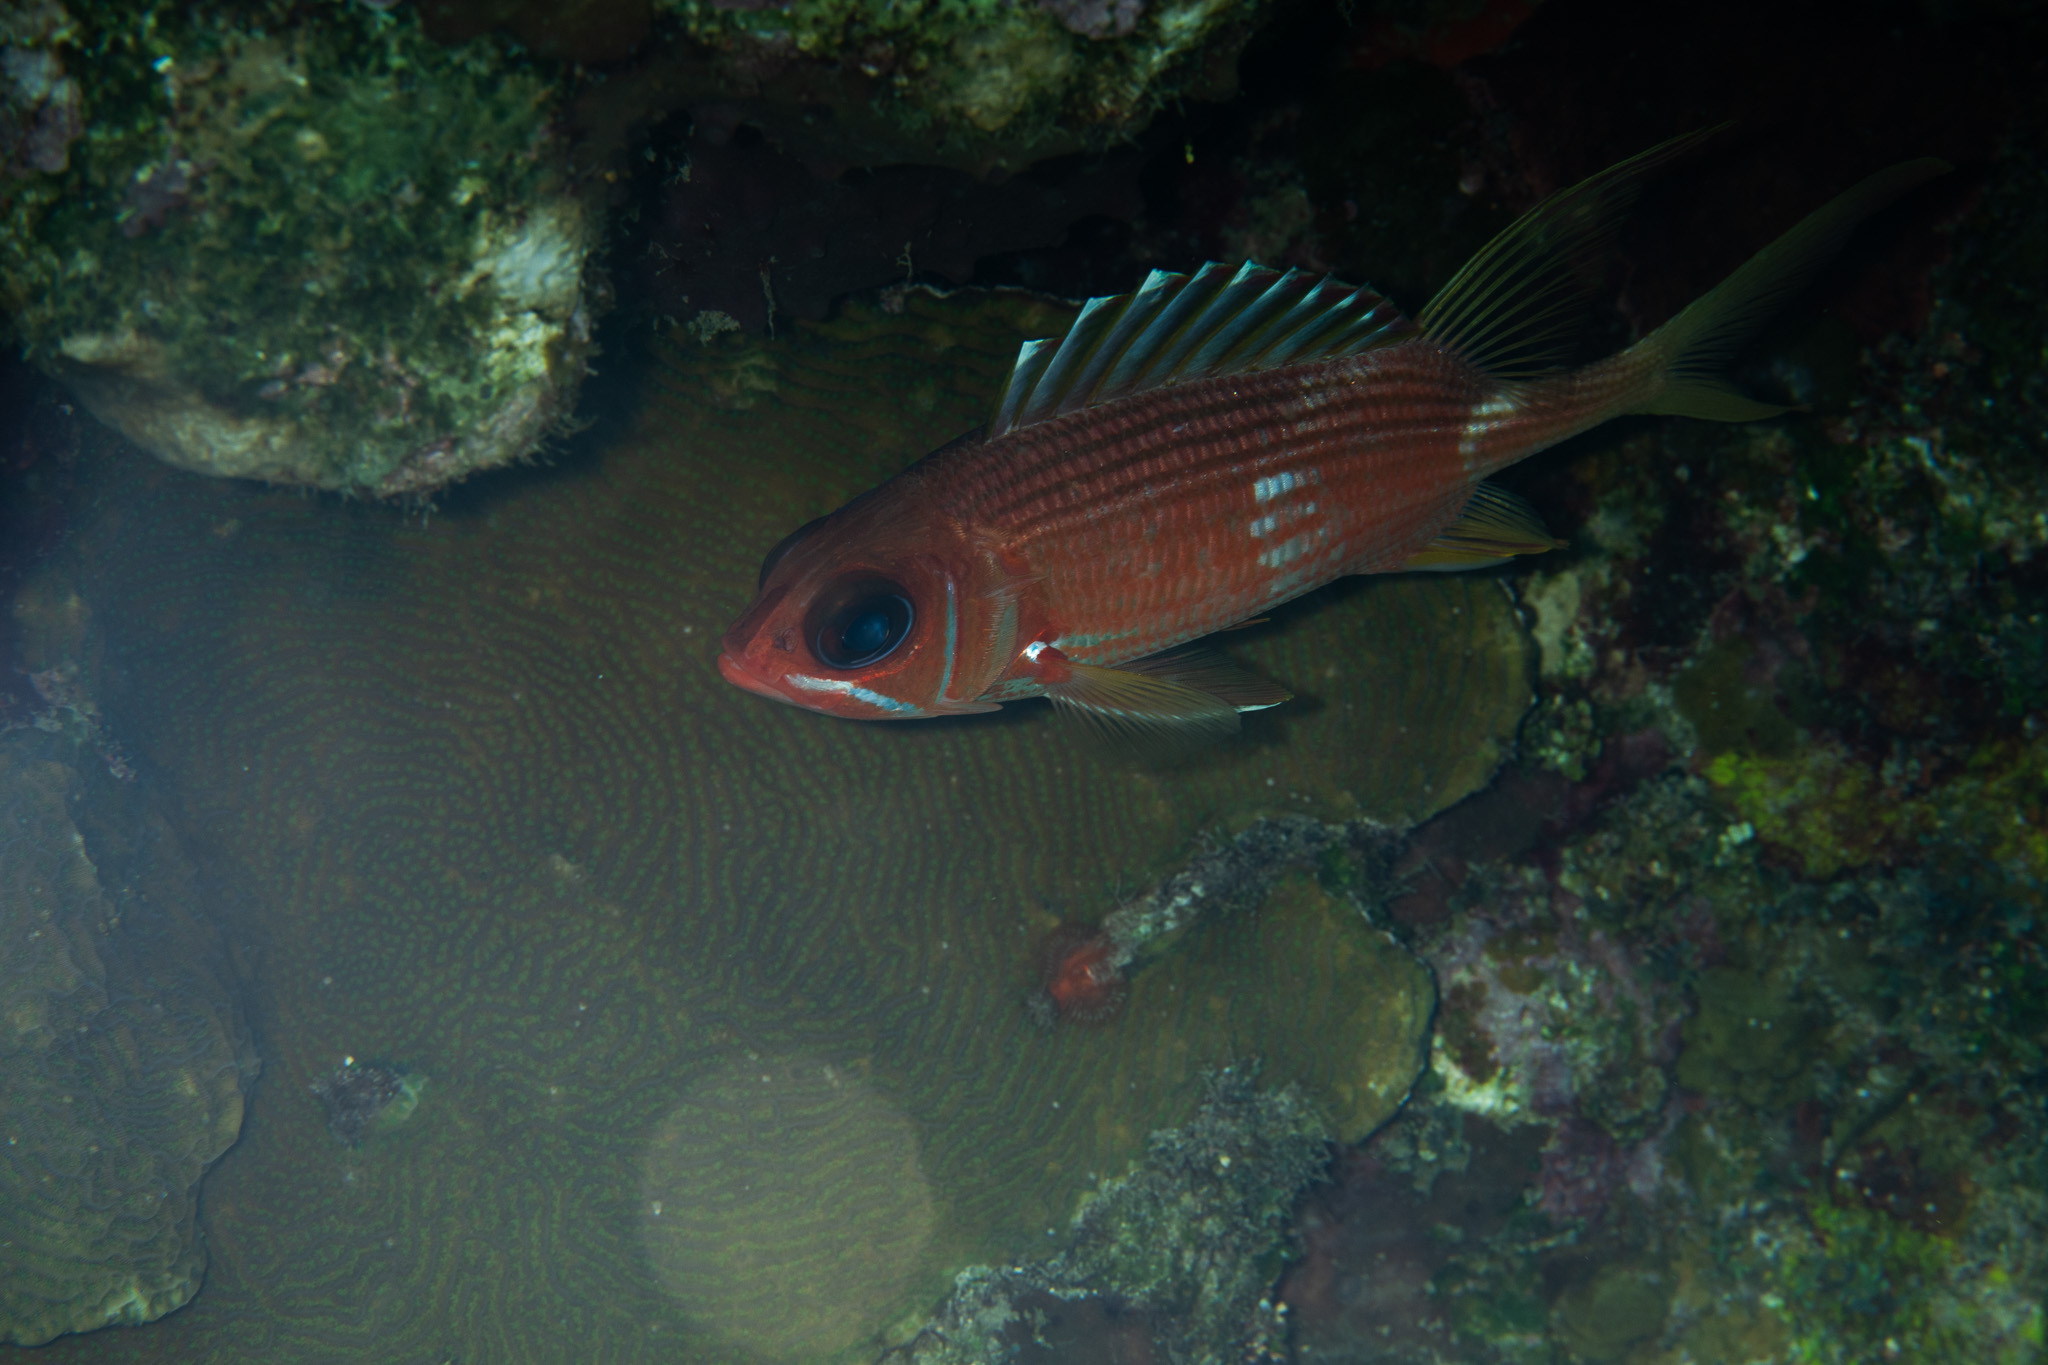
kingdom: Animalia
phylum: Chordata
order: Beryciformes
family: Holocentridae
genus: Holocentrus
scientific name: Holocentrus rufus
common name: Longspine squirrelfish
